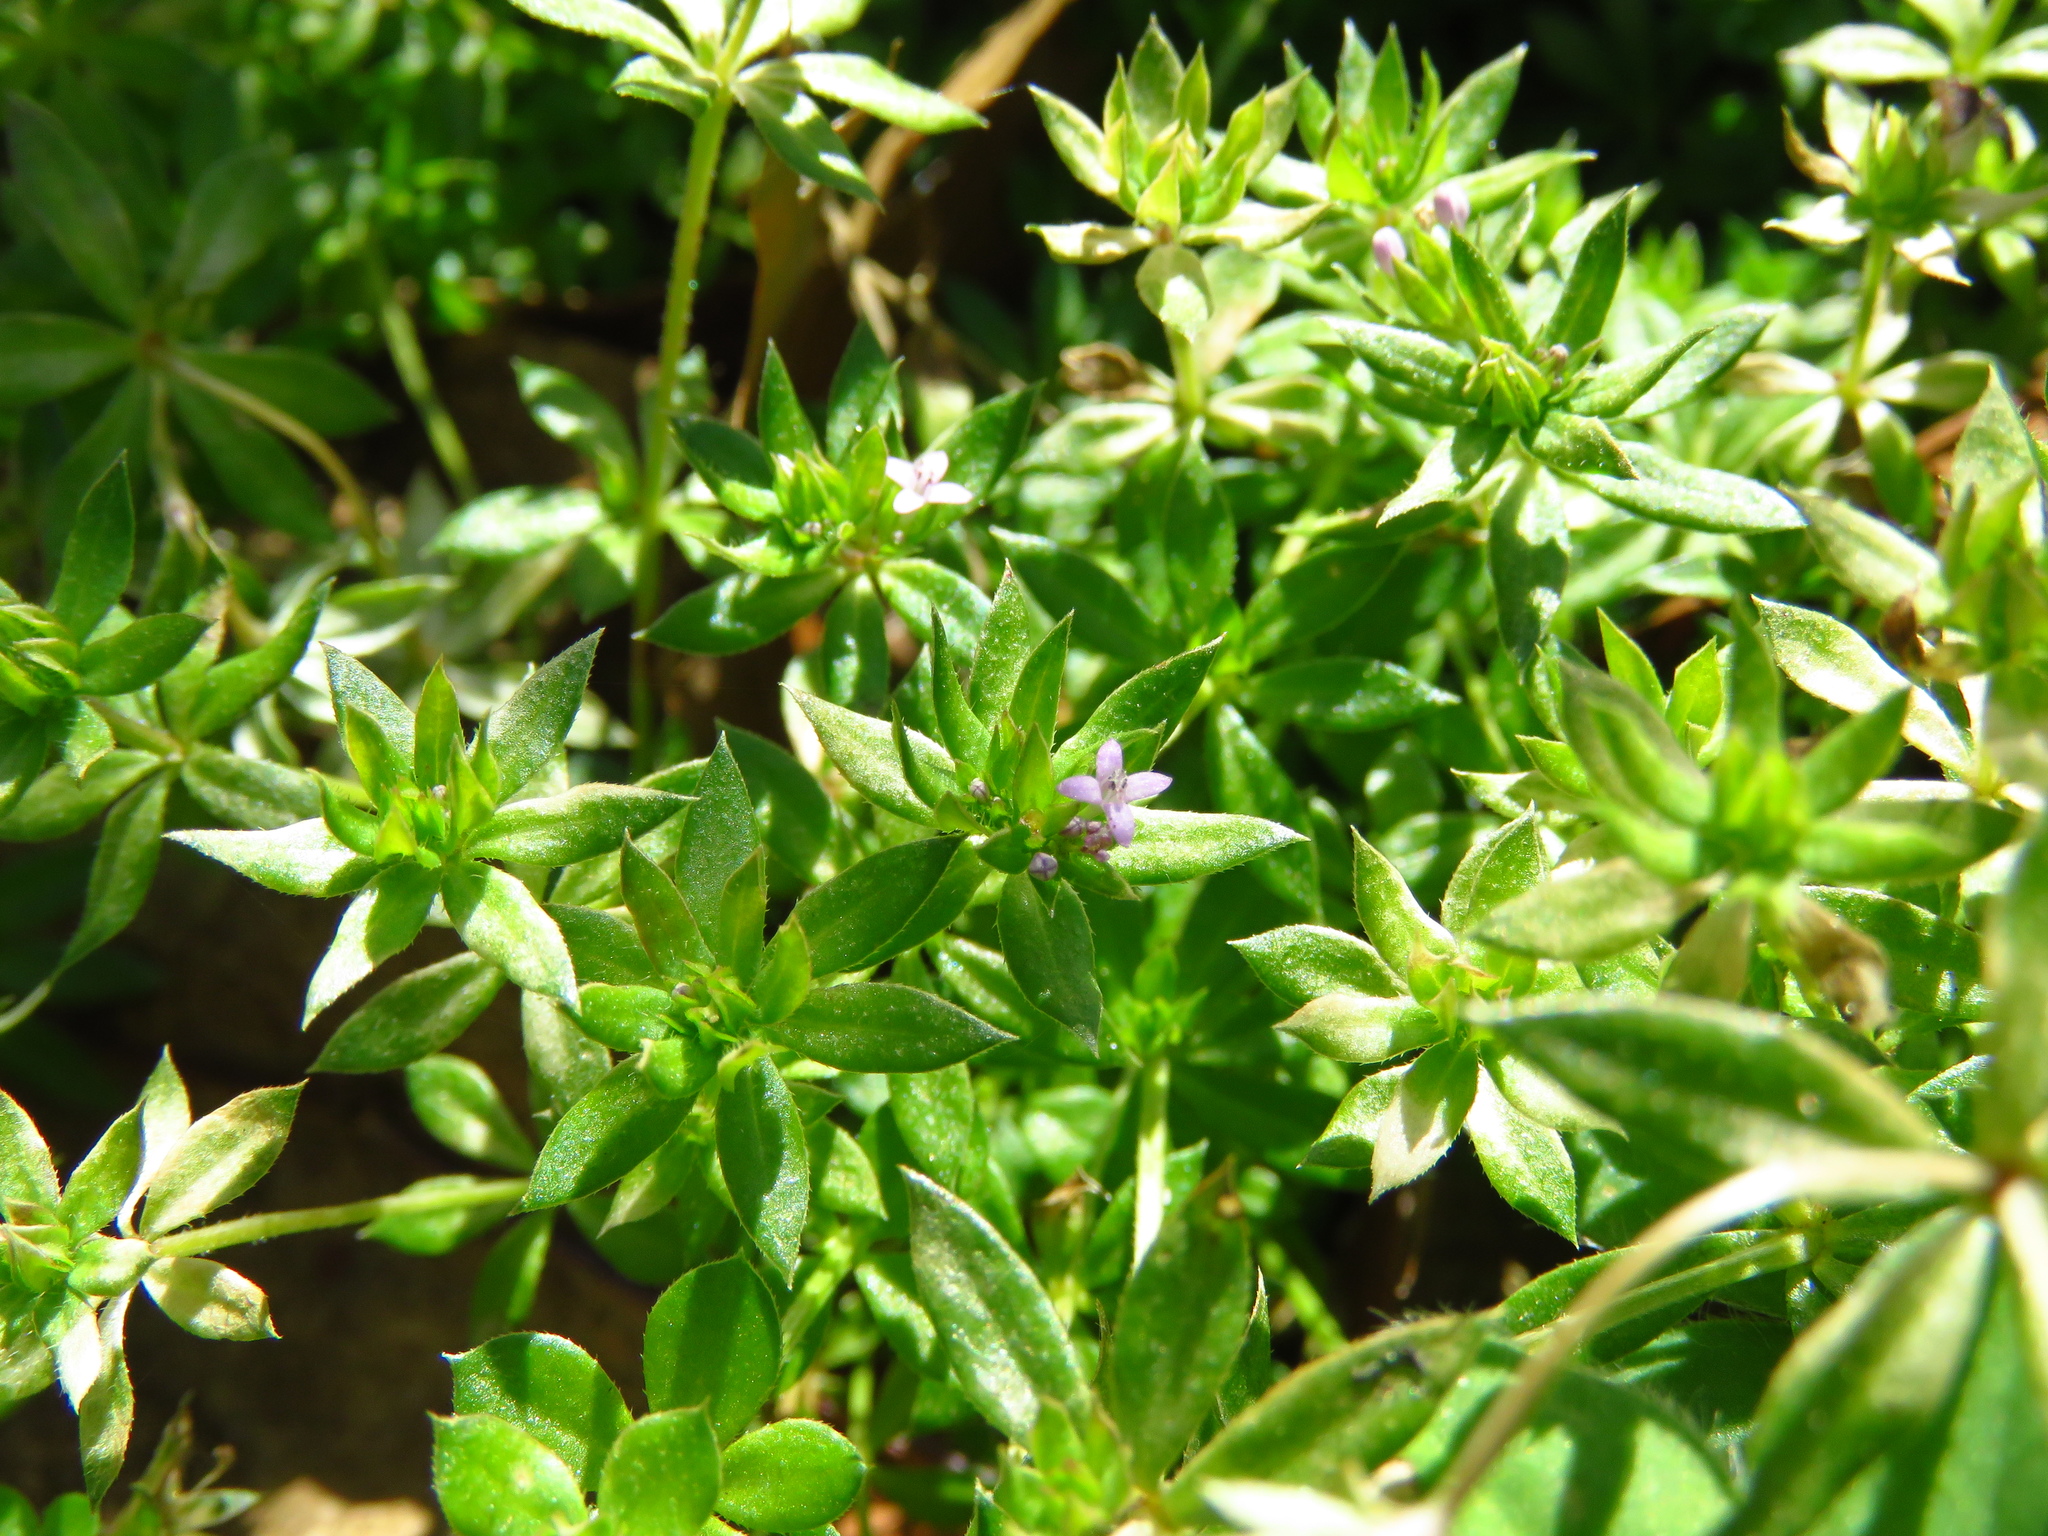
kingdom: Plantae
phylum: Tracheophyta
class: Magnoliopsida
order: Gentianales
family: Rubiaceae
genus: Sherardia
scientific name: Sherardia arvensis
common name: Field madder
